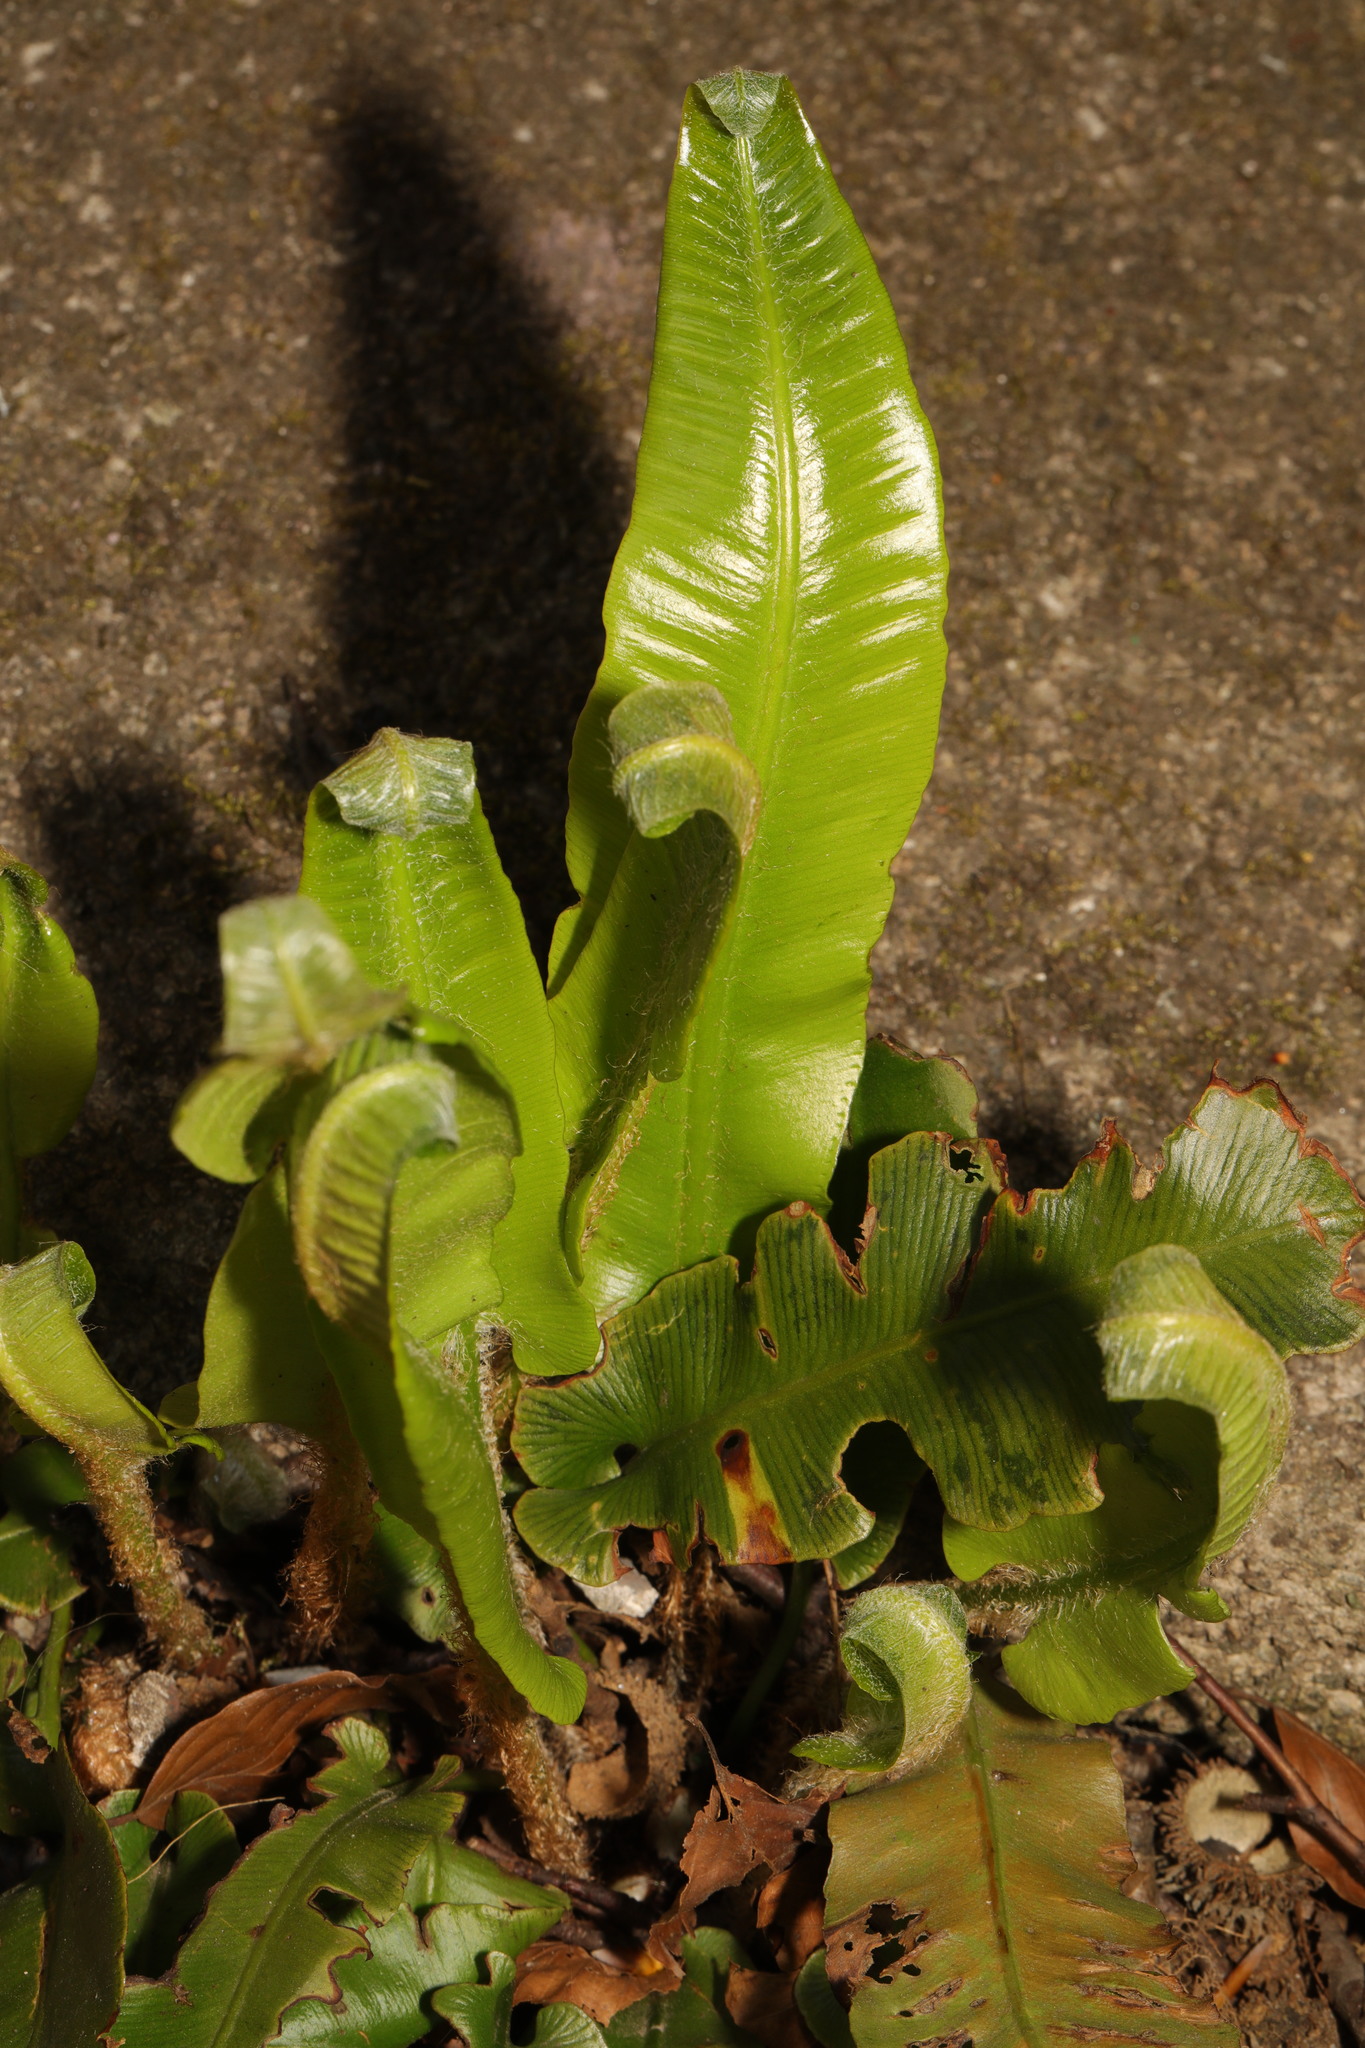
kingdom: Plantae
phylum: Tracheophyta
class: Polypodiopsida
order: Polypodiales
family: Aspleniaceae
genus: Asplenium
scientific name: Asplenium scolopendrium
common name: Hart's-tongue fern
